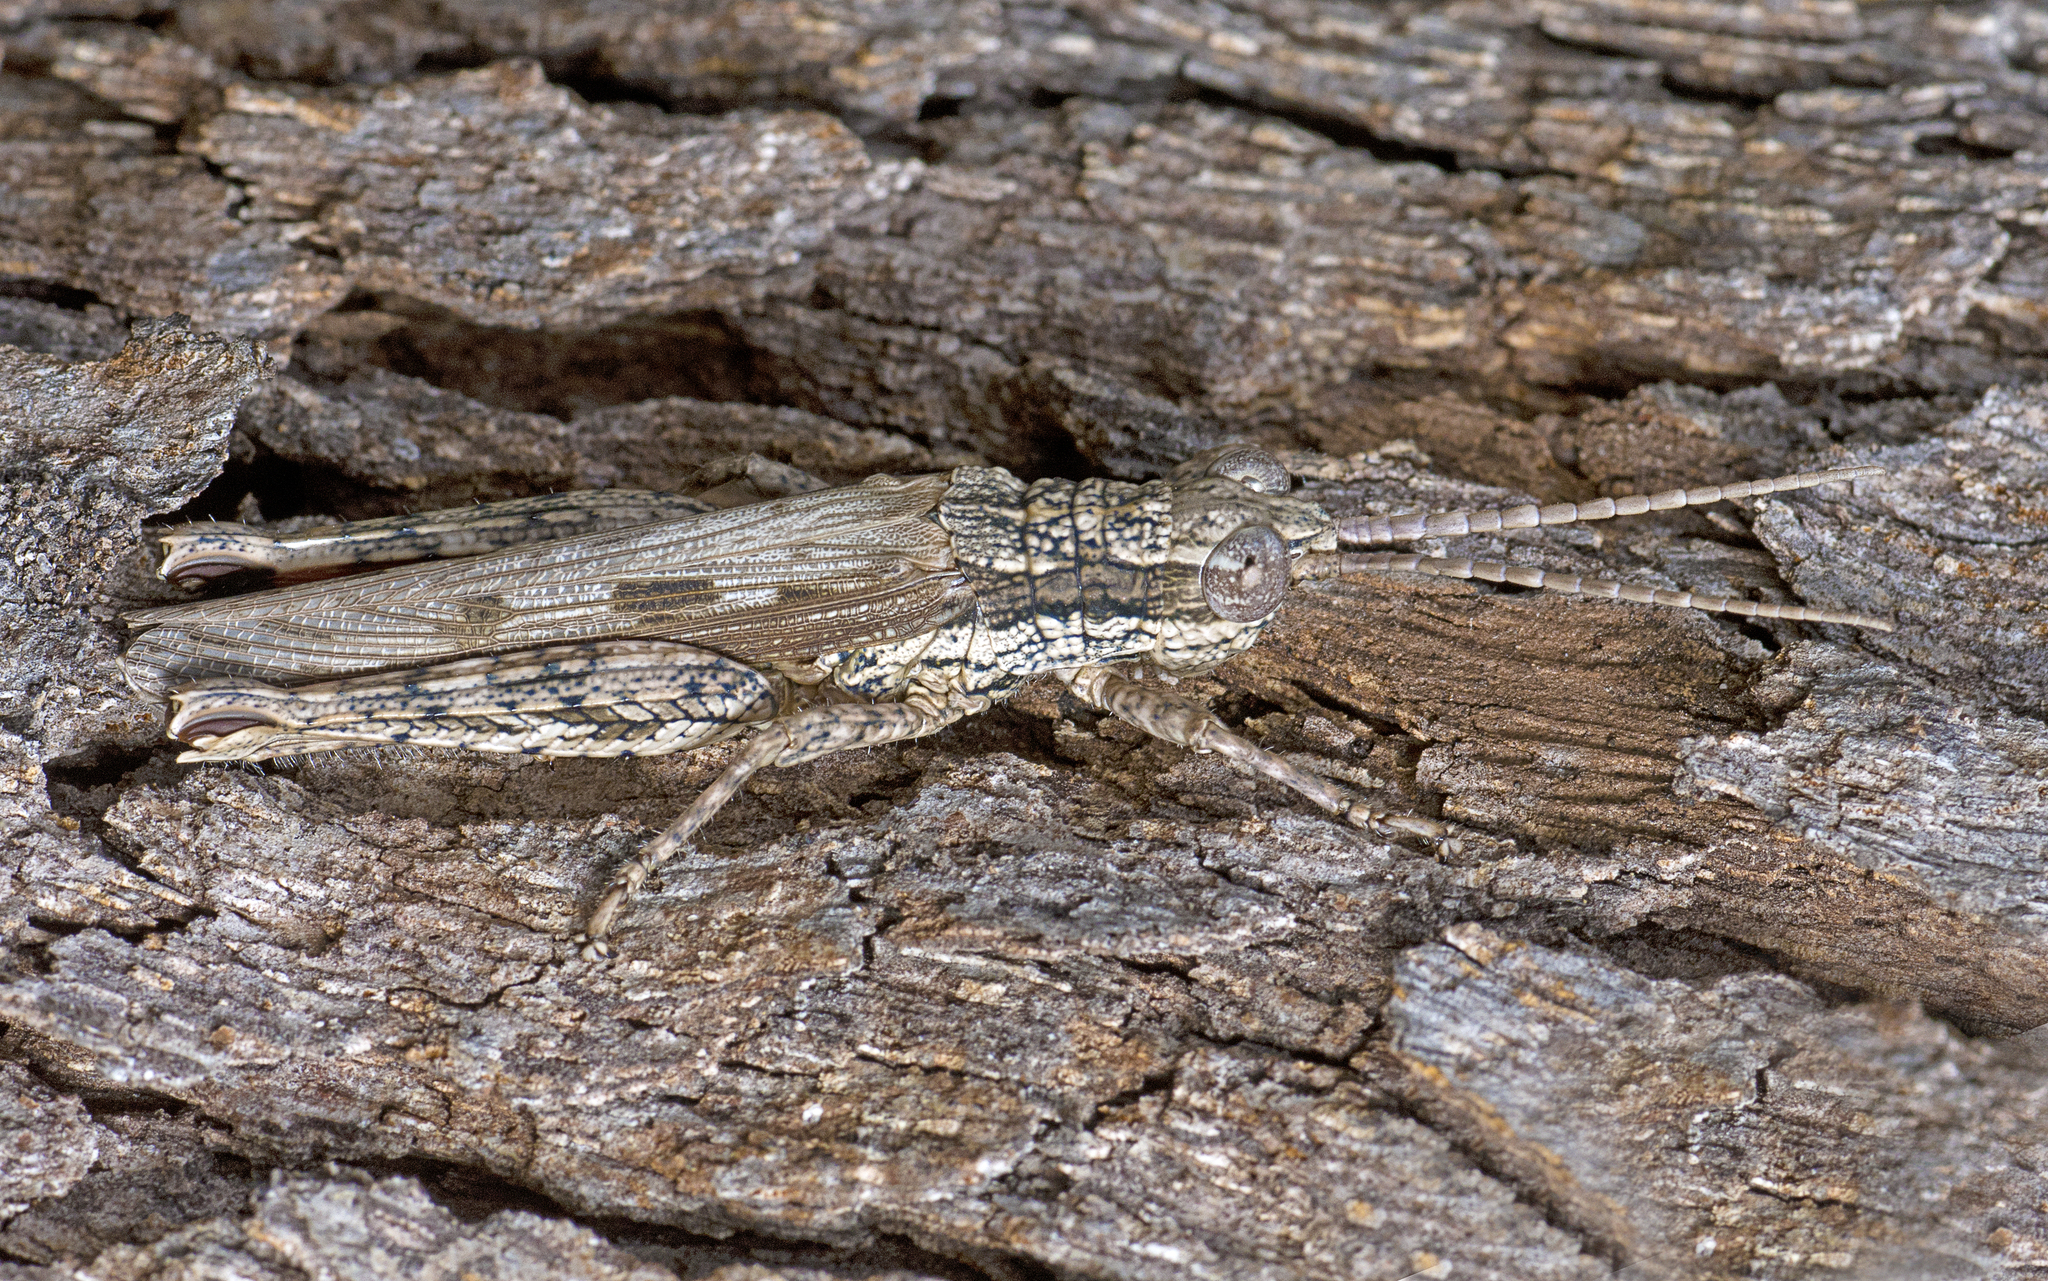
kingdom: Animalia
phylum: Arthropoda
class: Insecta
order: Orthoptera
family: Acrididae
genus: Adreppus
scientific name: Adreppus fallax
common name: Common adreppus
